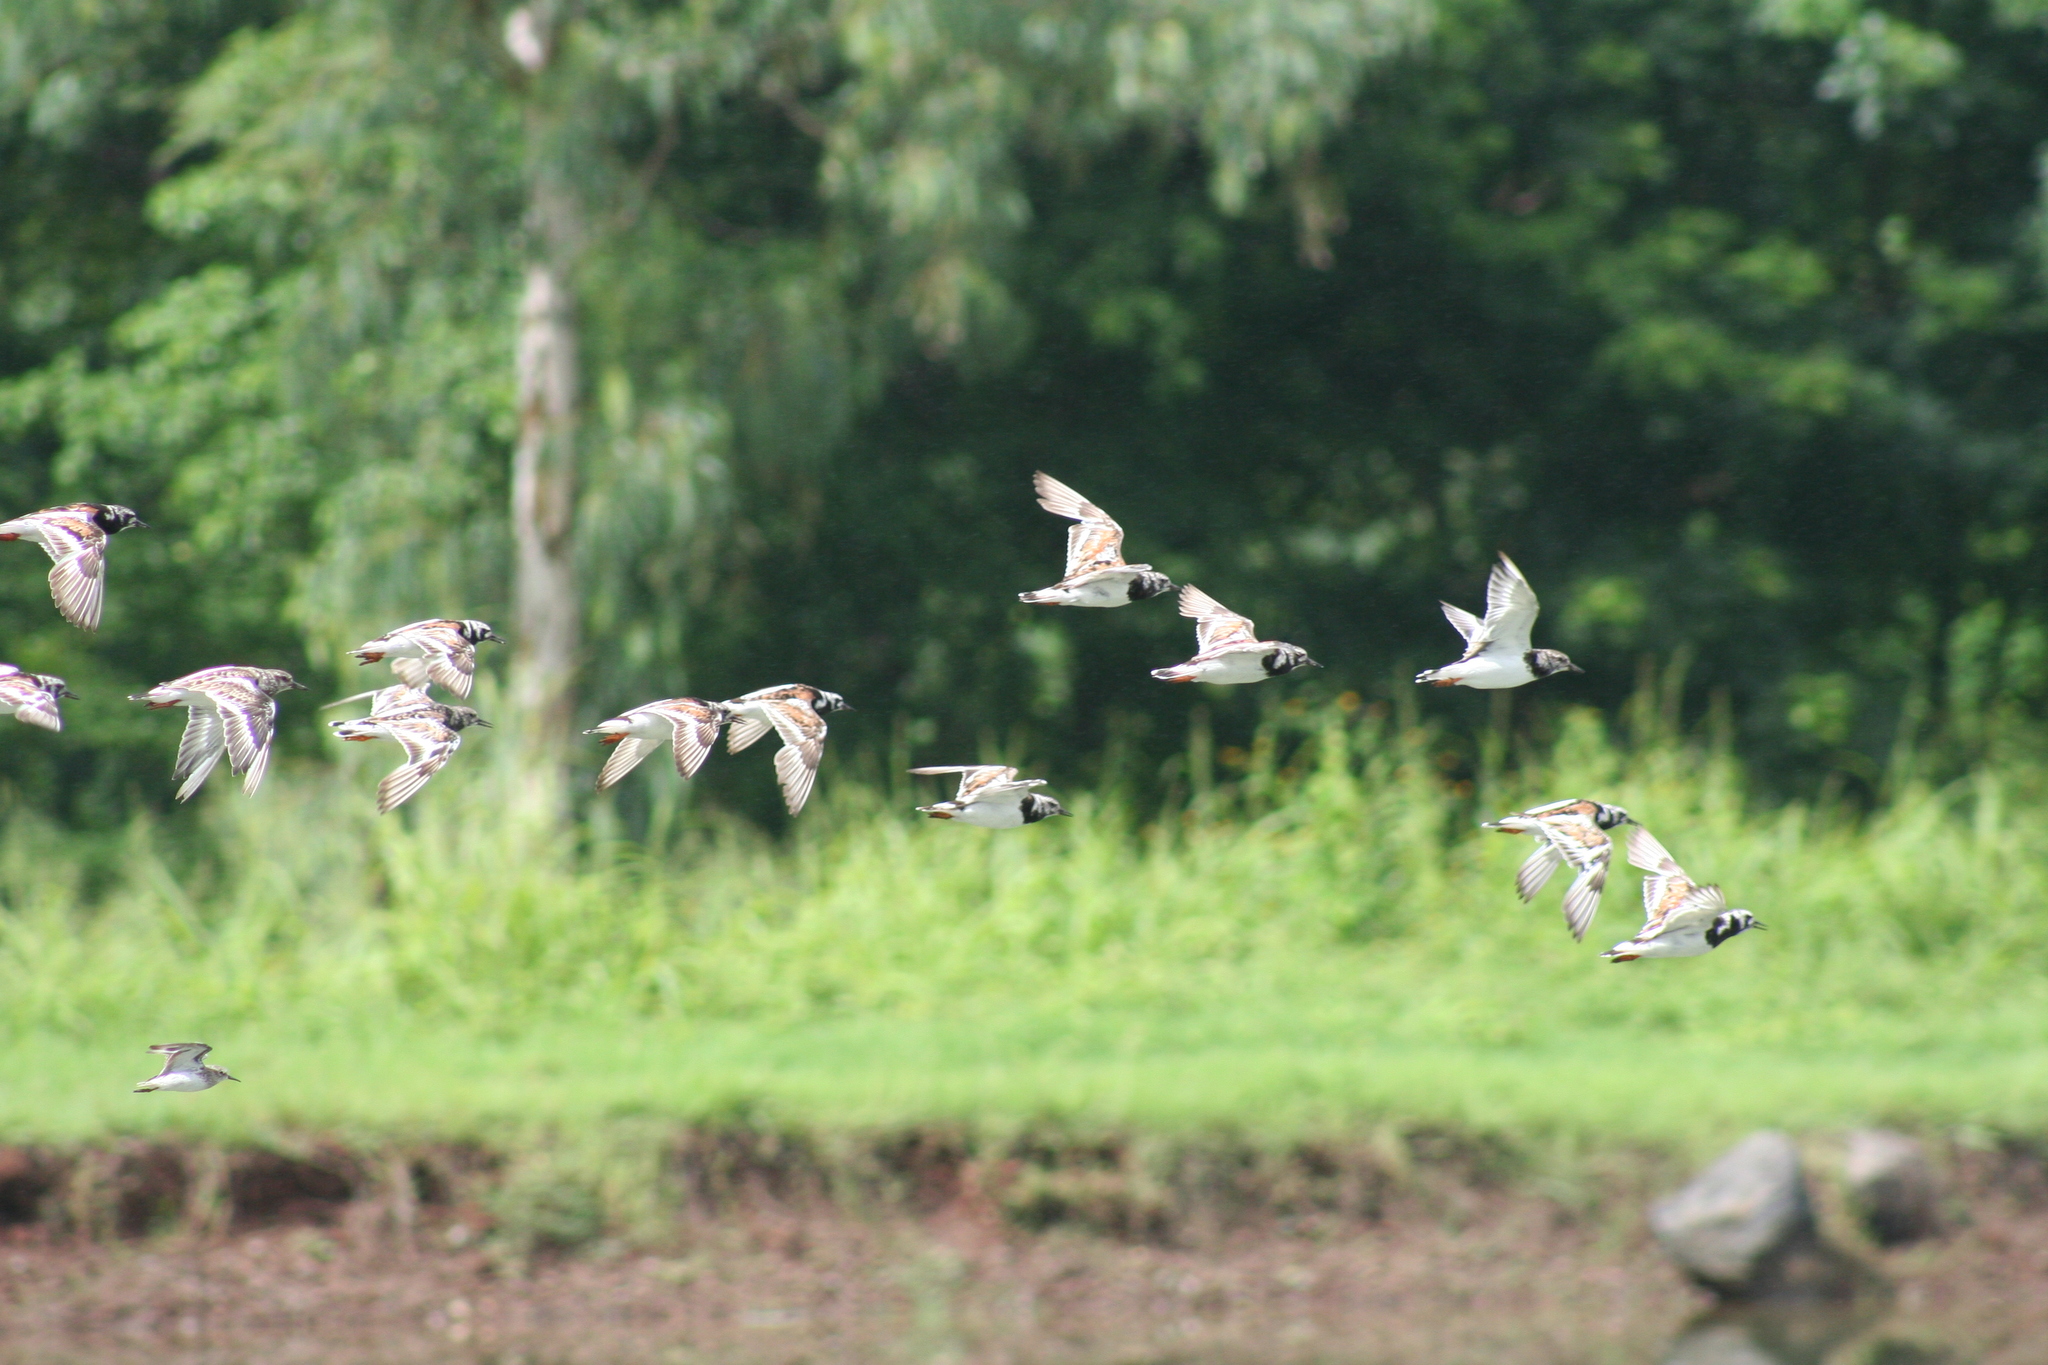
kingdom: Animalia
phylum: Chordata
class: Aves
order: Charadriiformes
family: Scolopacidae
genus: Arenaria
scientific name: Arenaria interpres
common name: Ruddy turnstone
